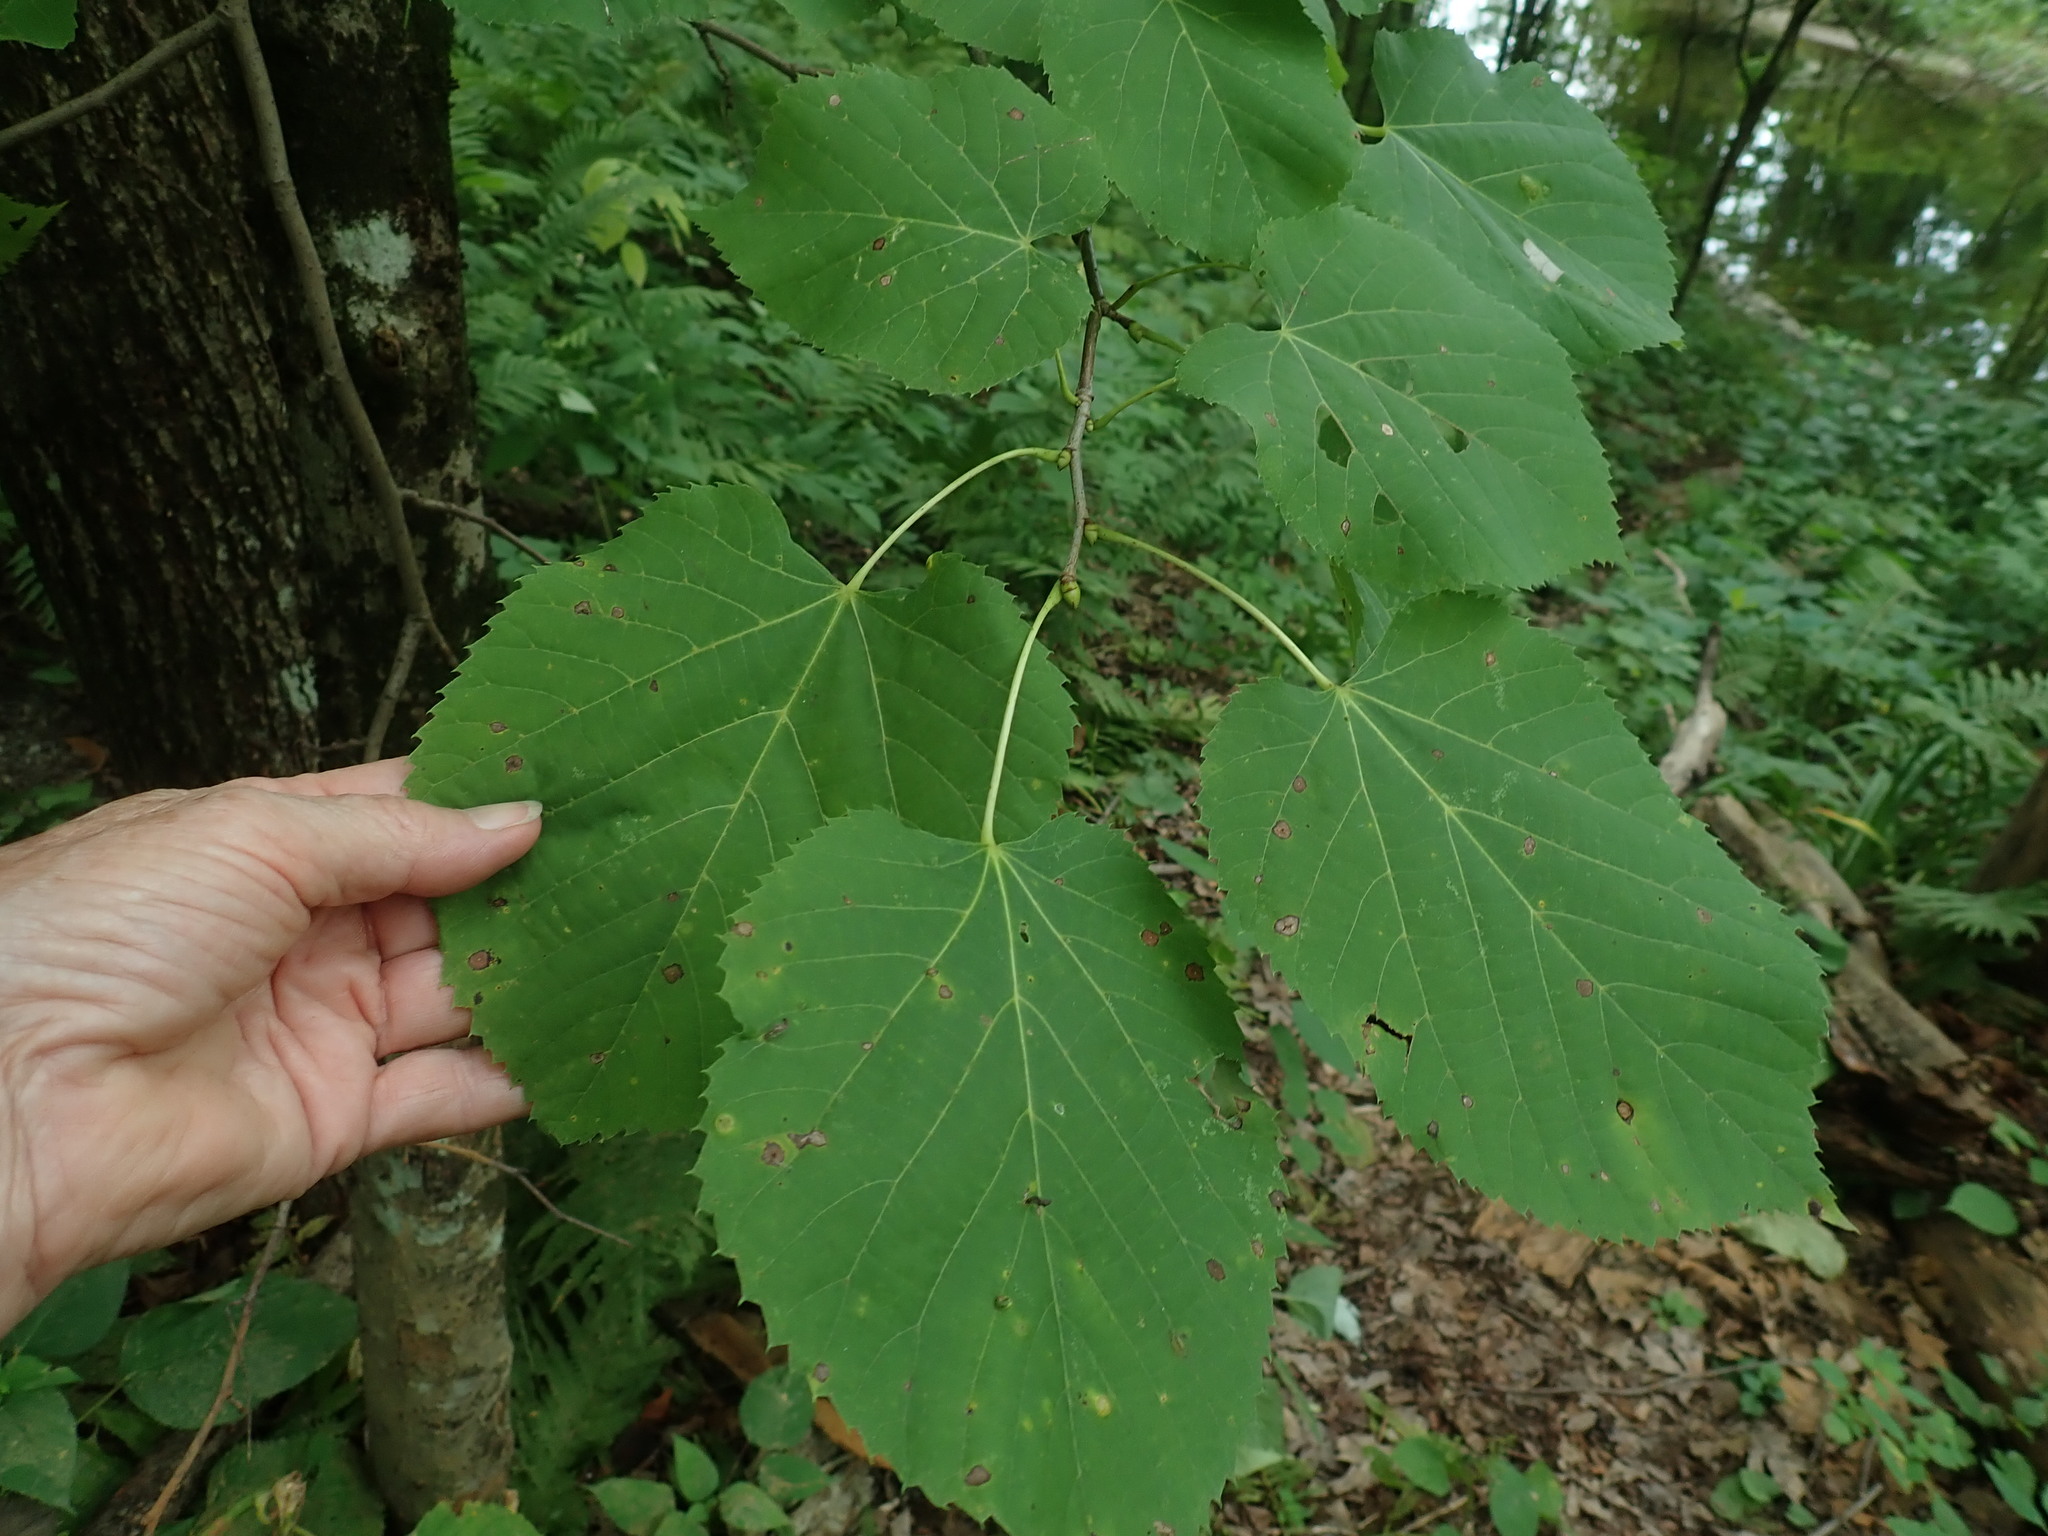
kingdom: Plantae
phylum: Tracheophyta
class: Magnoliopsida
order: Malvales
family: Malvaceae
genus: Tilia
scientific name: Tilia americana
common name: Basswood
